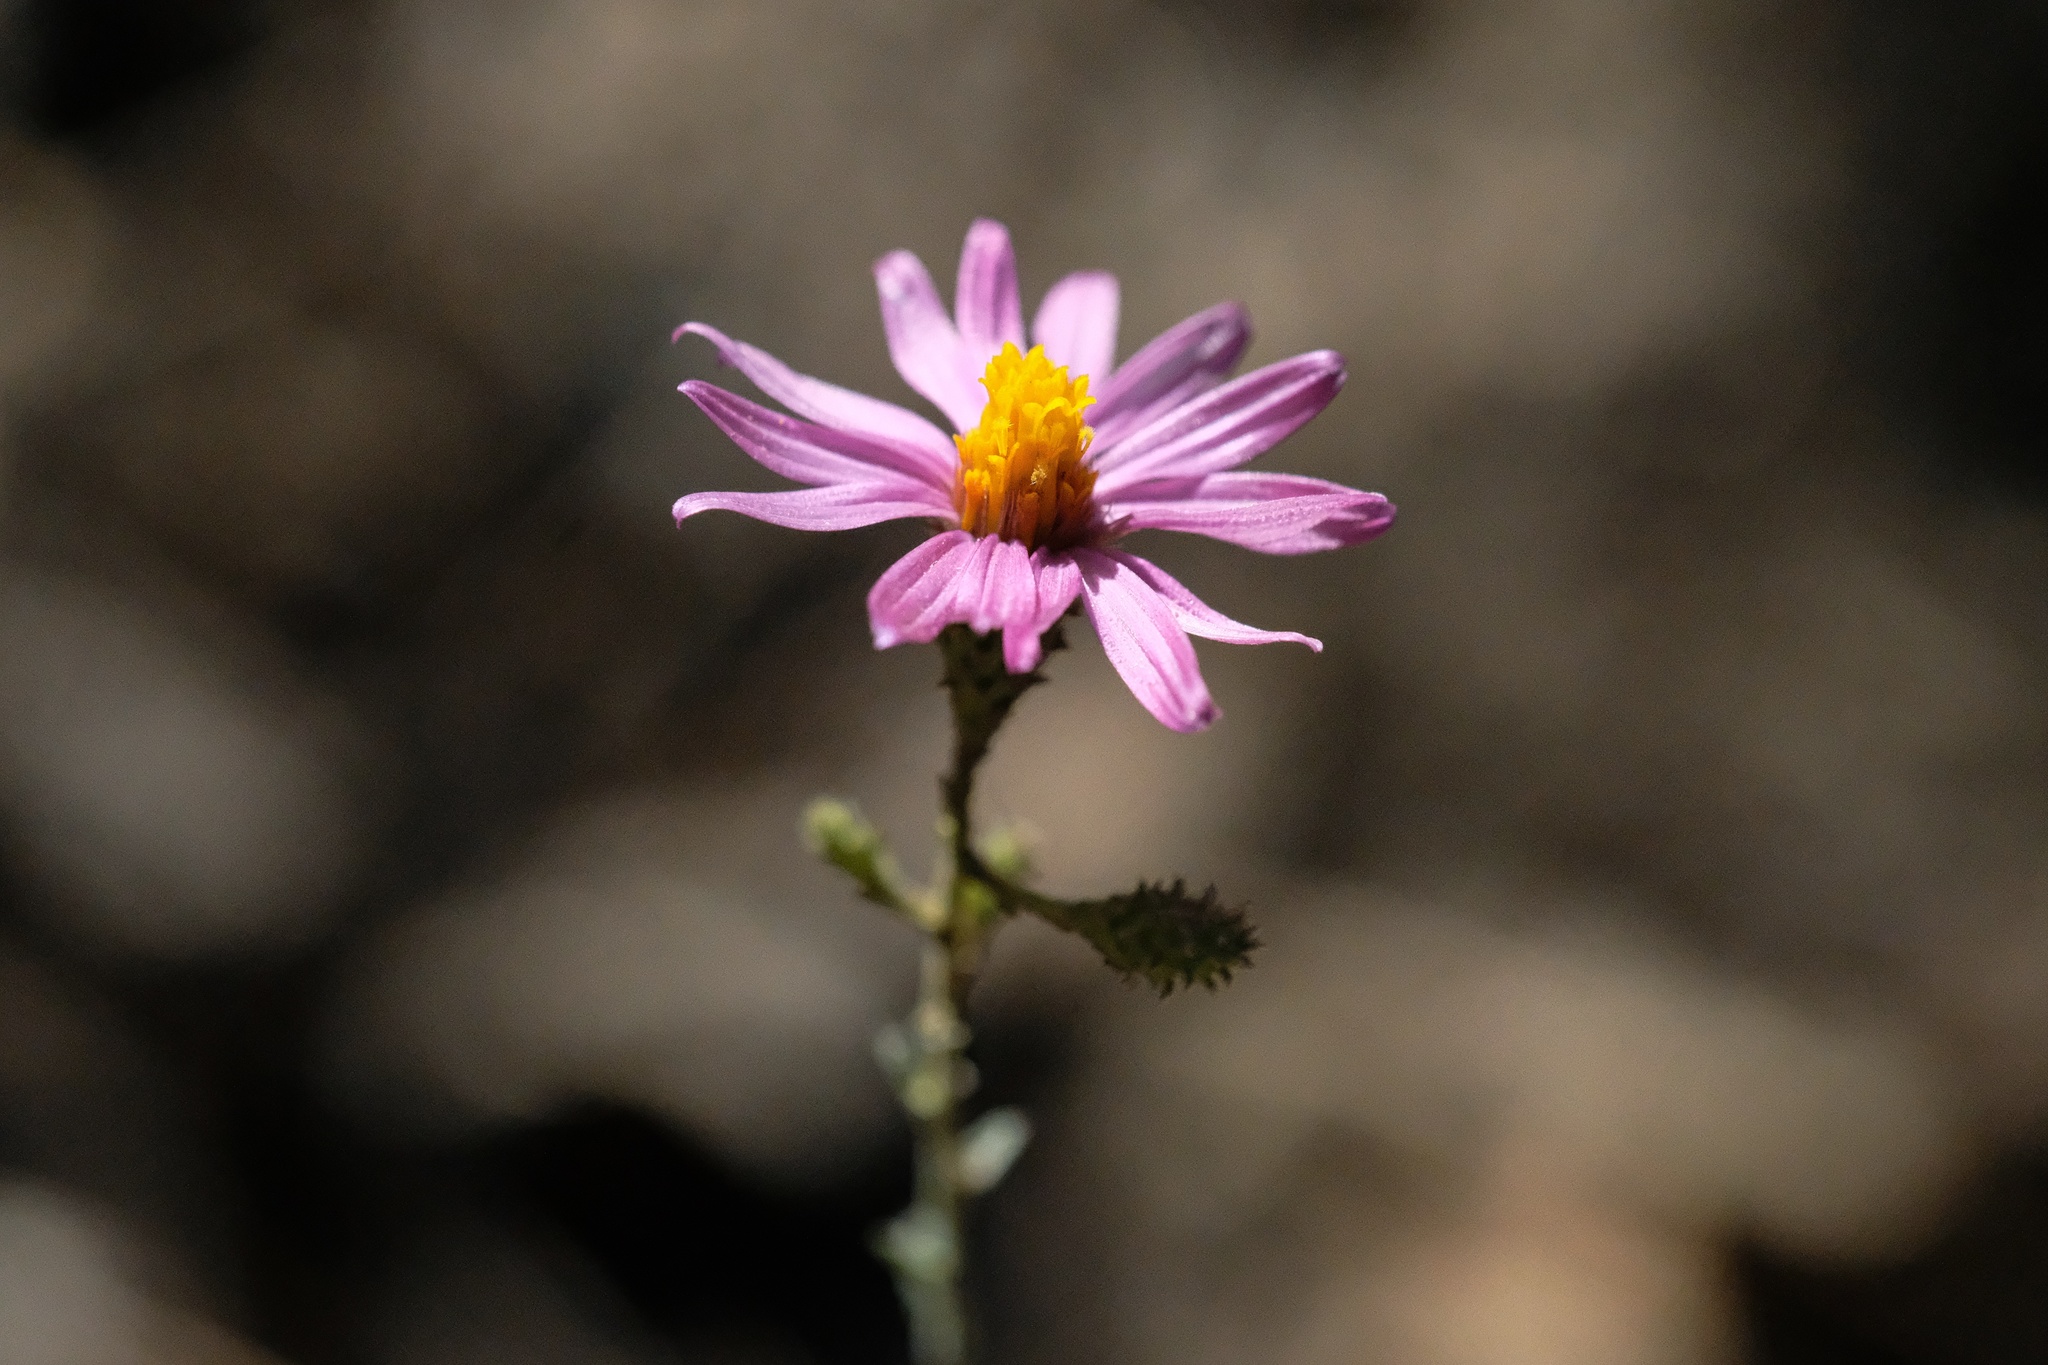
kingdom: Plantae
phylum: Tracheophyta
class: Magnoliopsida
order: Asterales
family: Asteraceae
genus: Corethrogyne
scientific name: Corethrogyne filaginifolia
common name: Sand-aster
